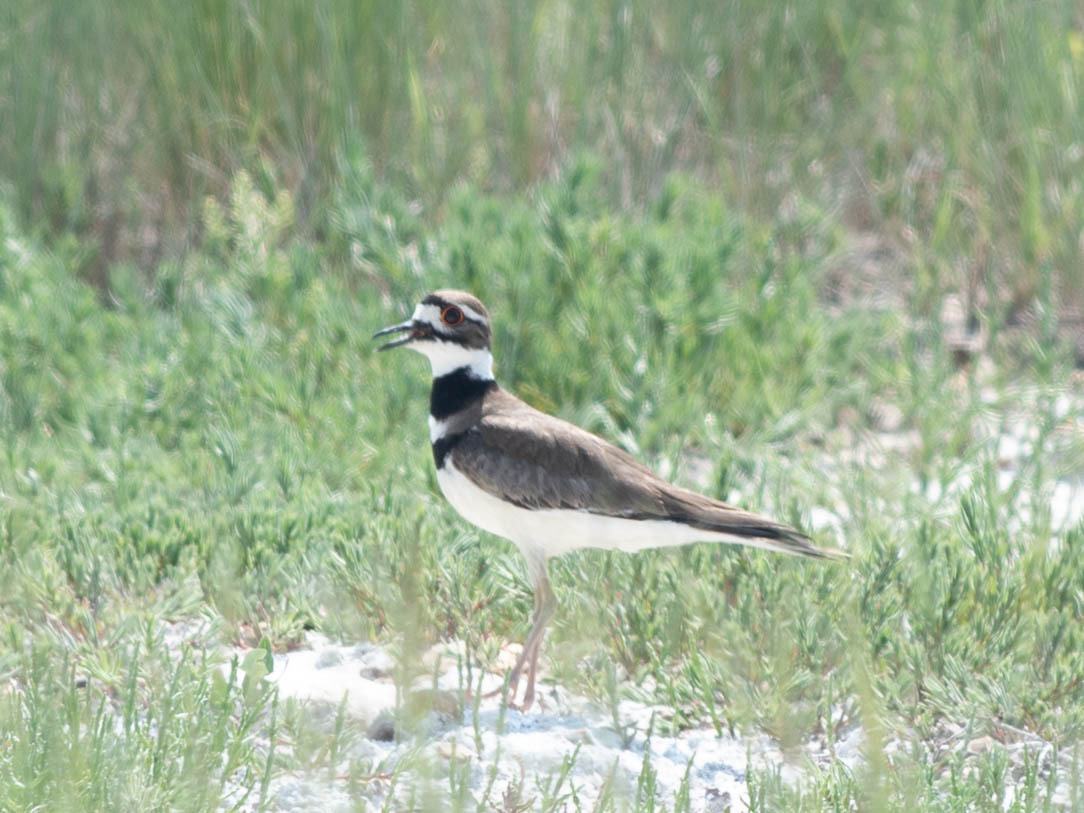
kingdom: Animalia
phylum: Chordata
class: Aves
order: Charadriiformes
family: Charadriidae
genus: Charadrius
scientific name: Charadrius vociferus
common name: Killdeer
